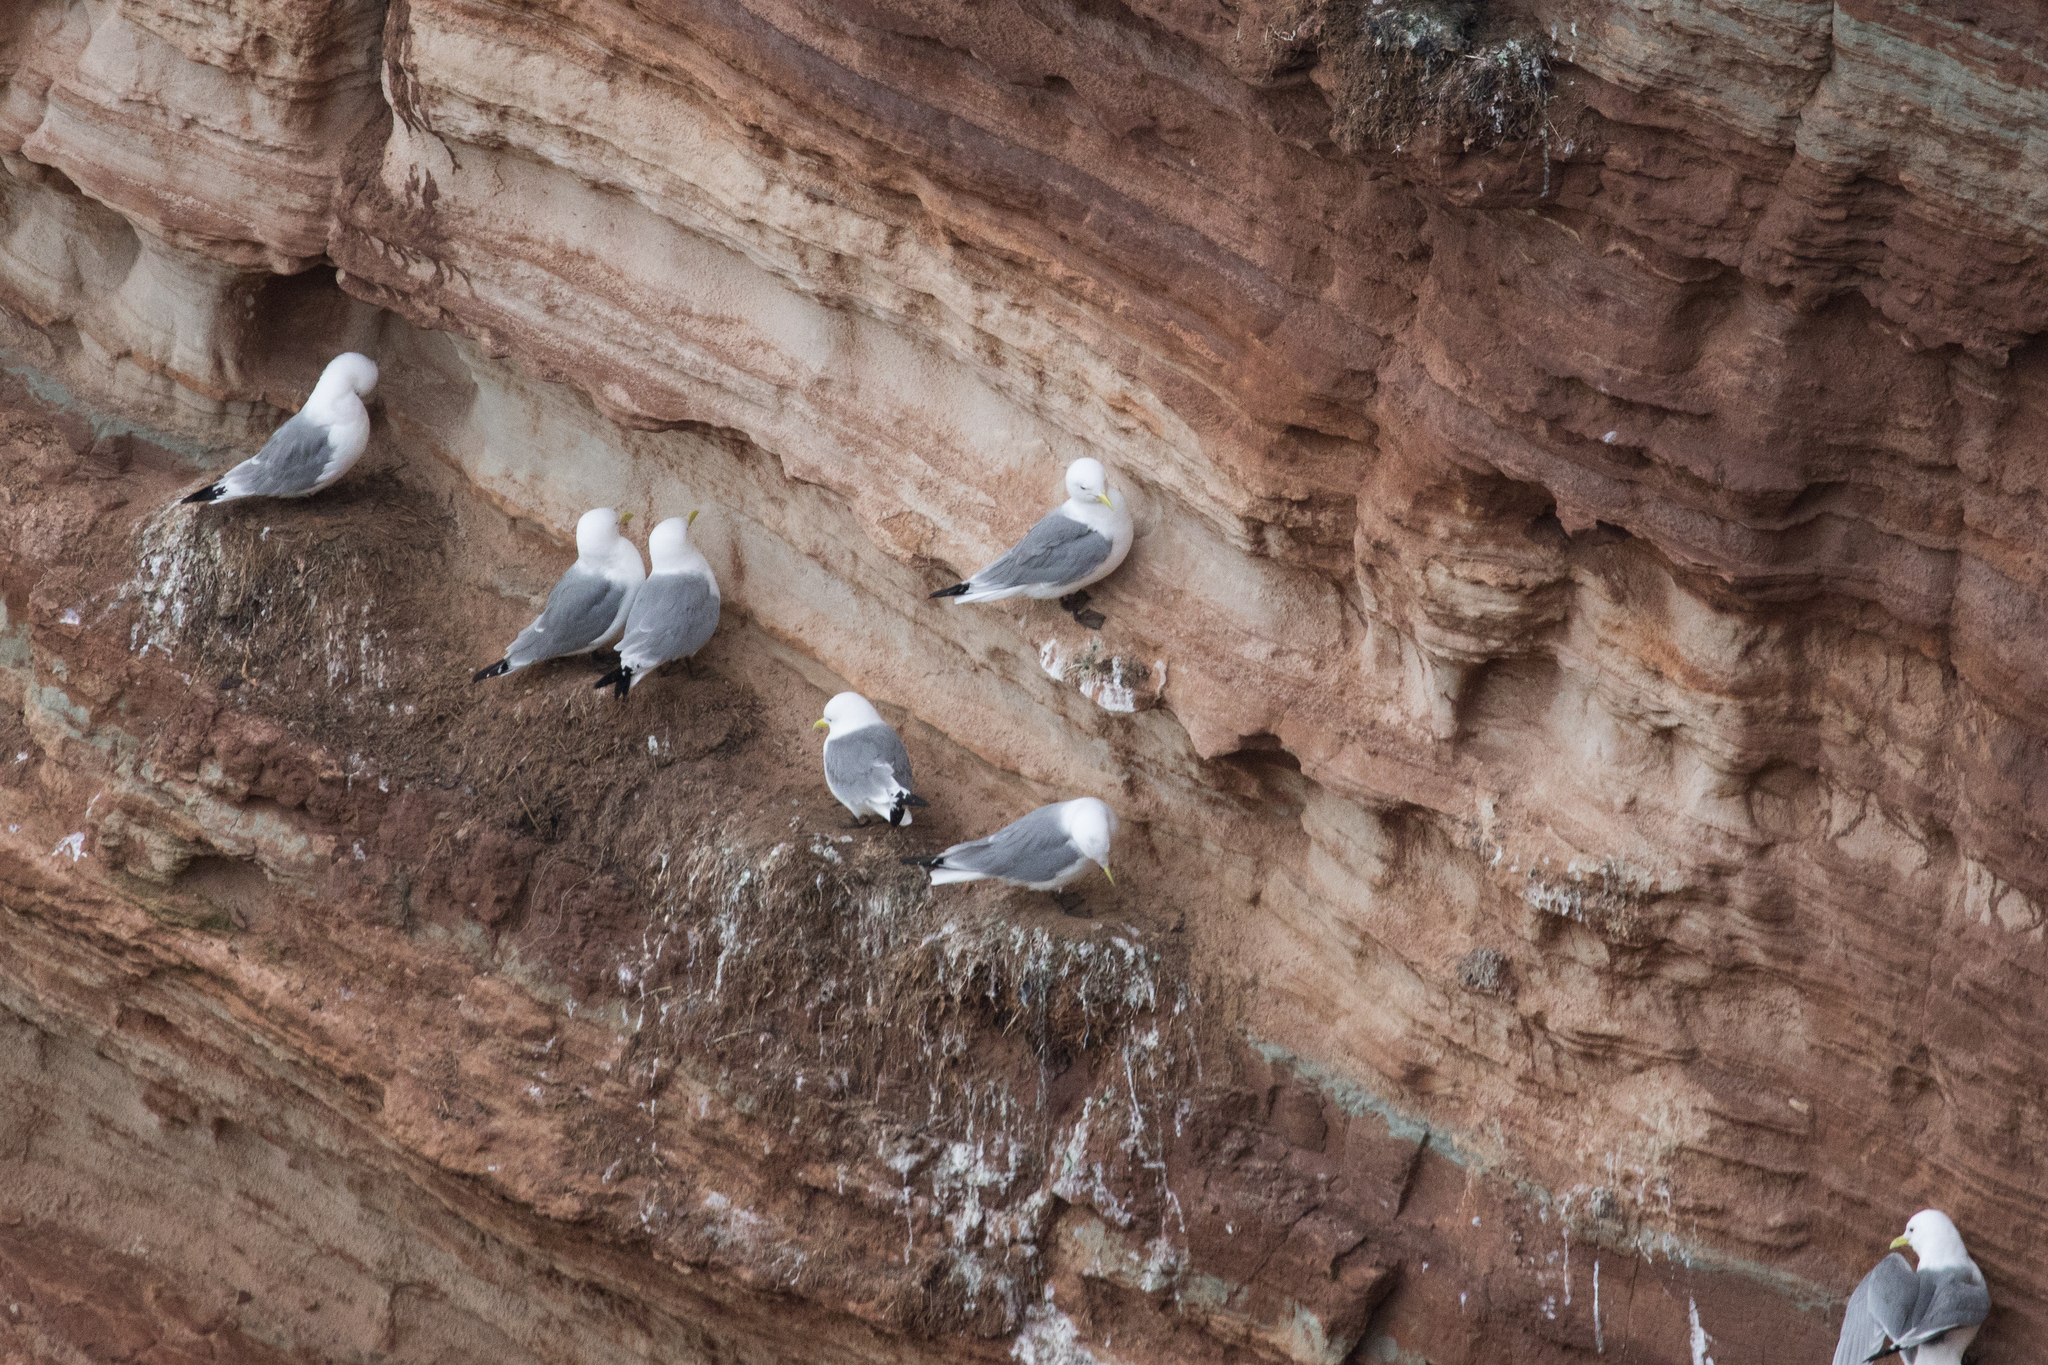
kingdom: Animalia
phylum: Chordata
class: Aves
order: Charadriiformes
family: Laridae
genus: Rissa
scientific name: Rissa tridactyla
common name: Black-legged kittiwake
